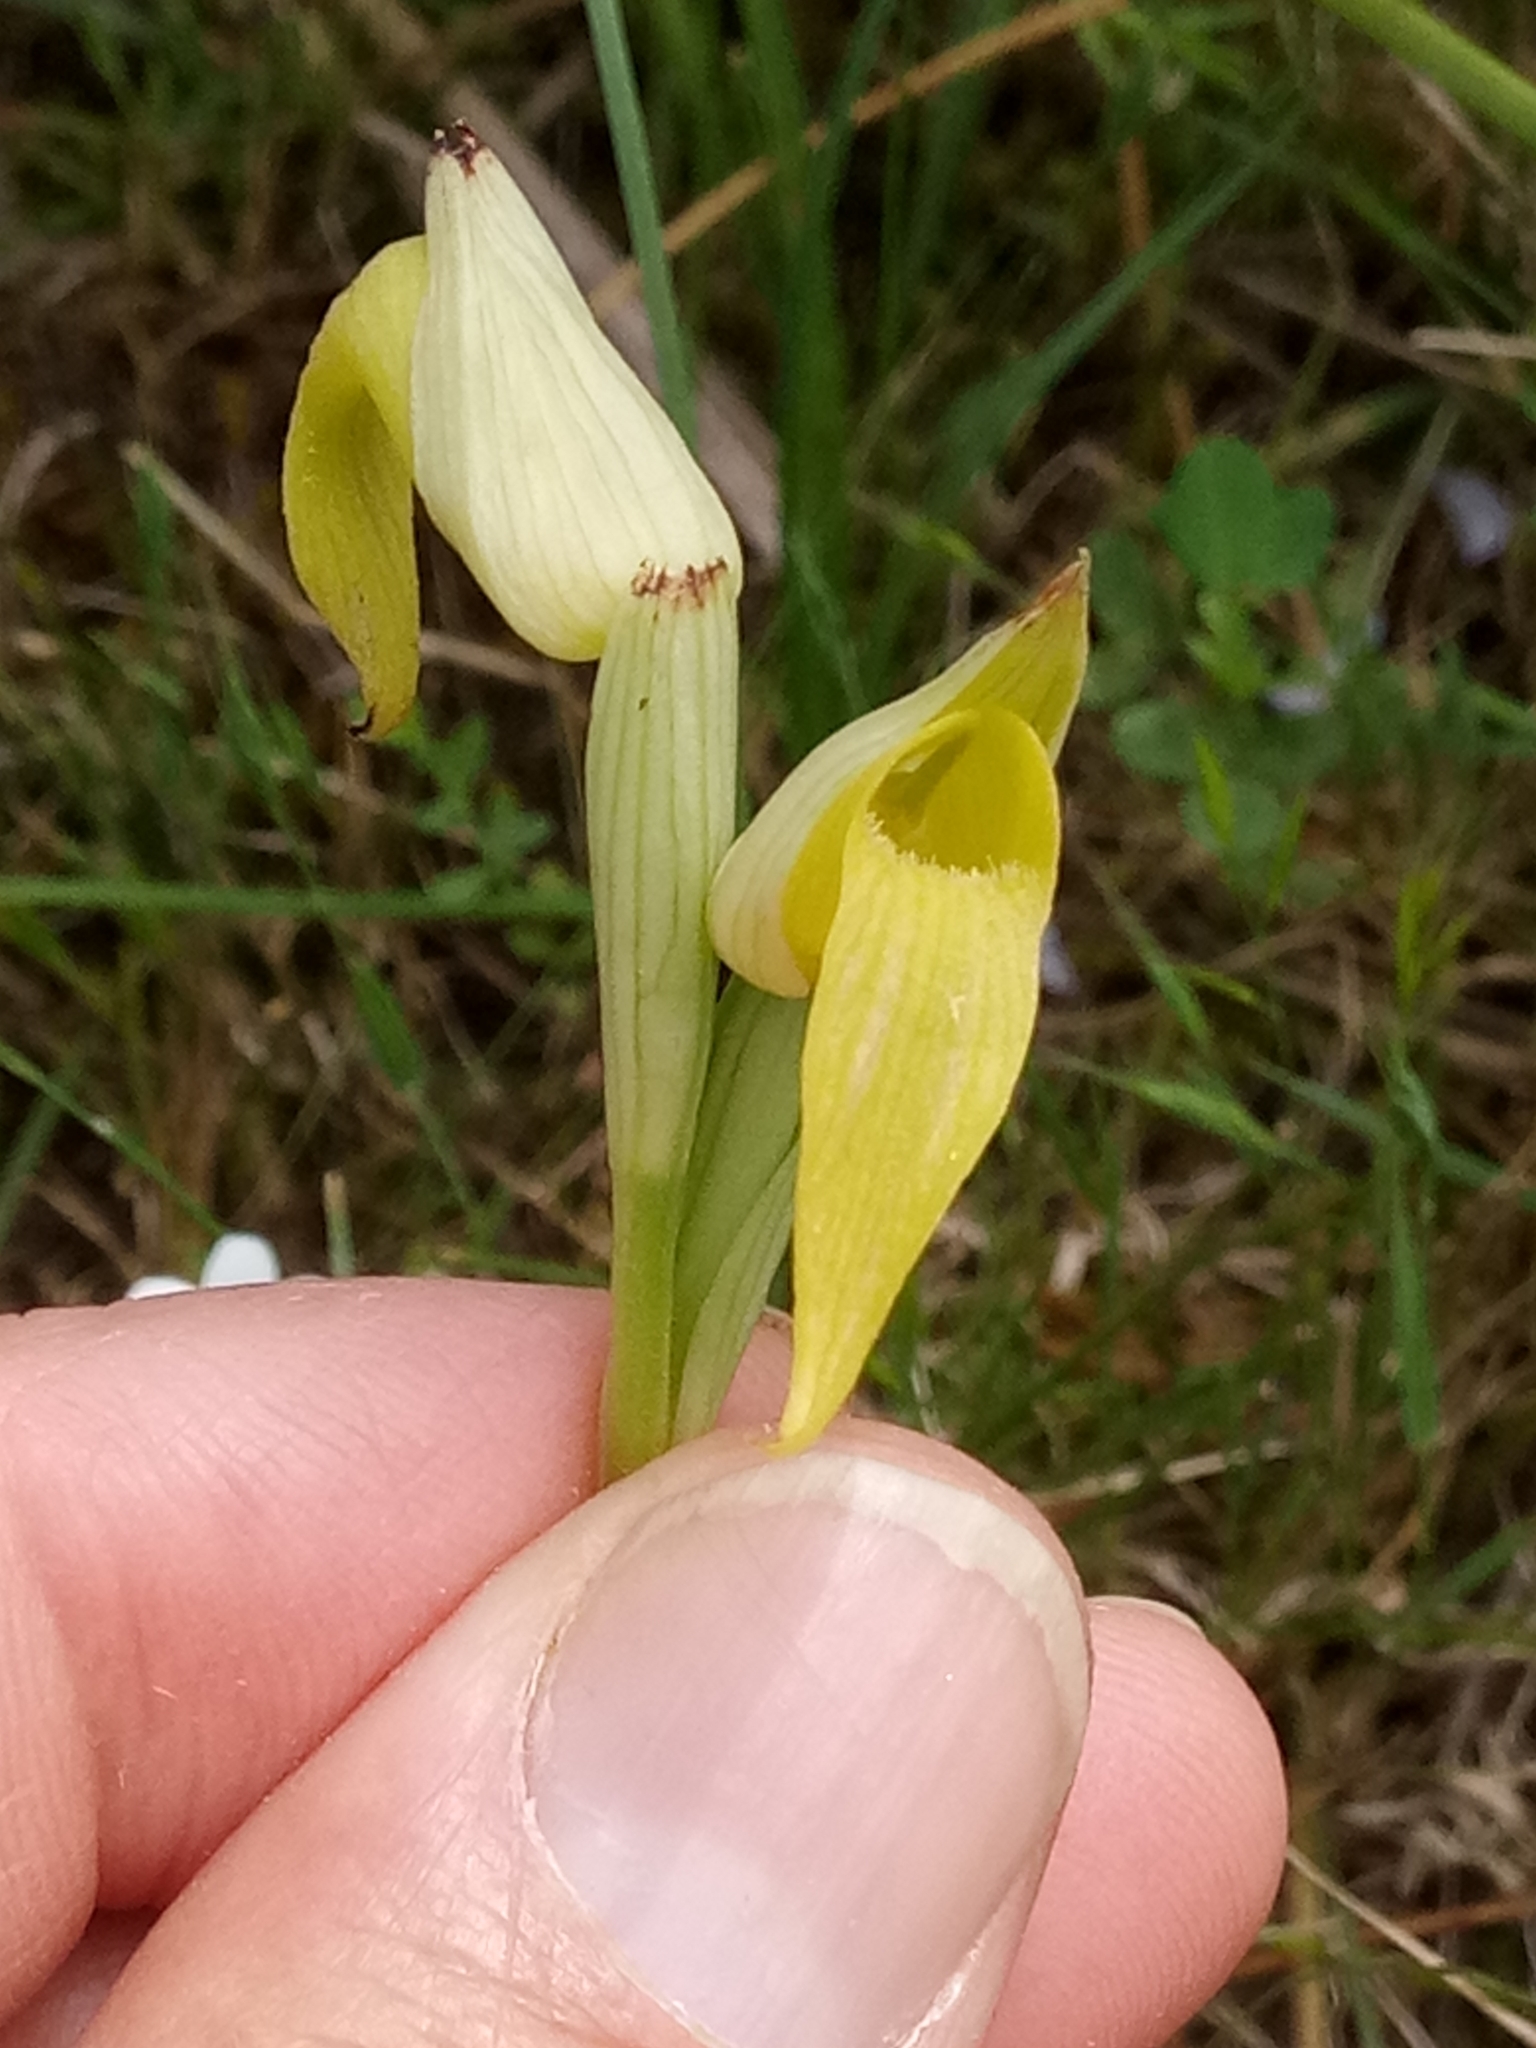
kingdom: Plantae
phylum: Tracheophyta
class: Liliopsida
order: Asparagales
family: Orchidaceae
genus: Serapias
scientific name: Serapias lingua
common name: Tongue-orchid
